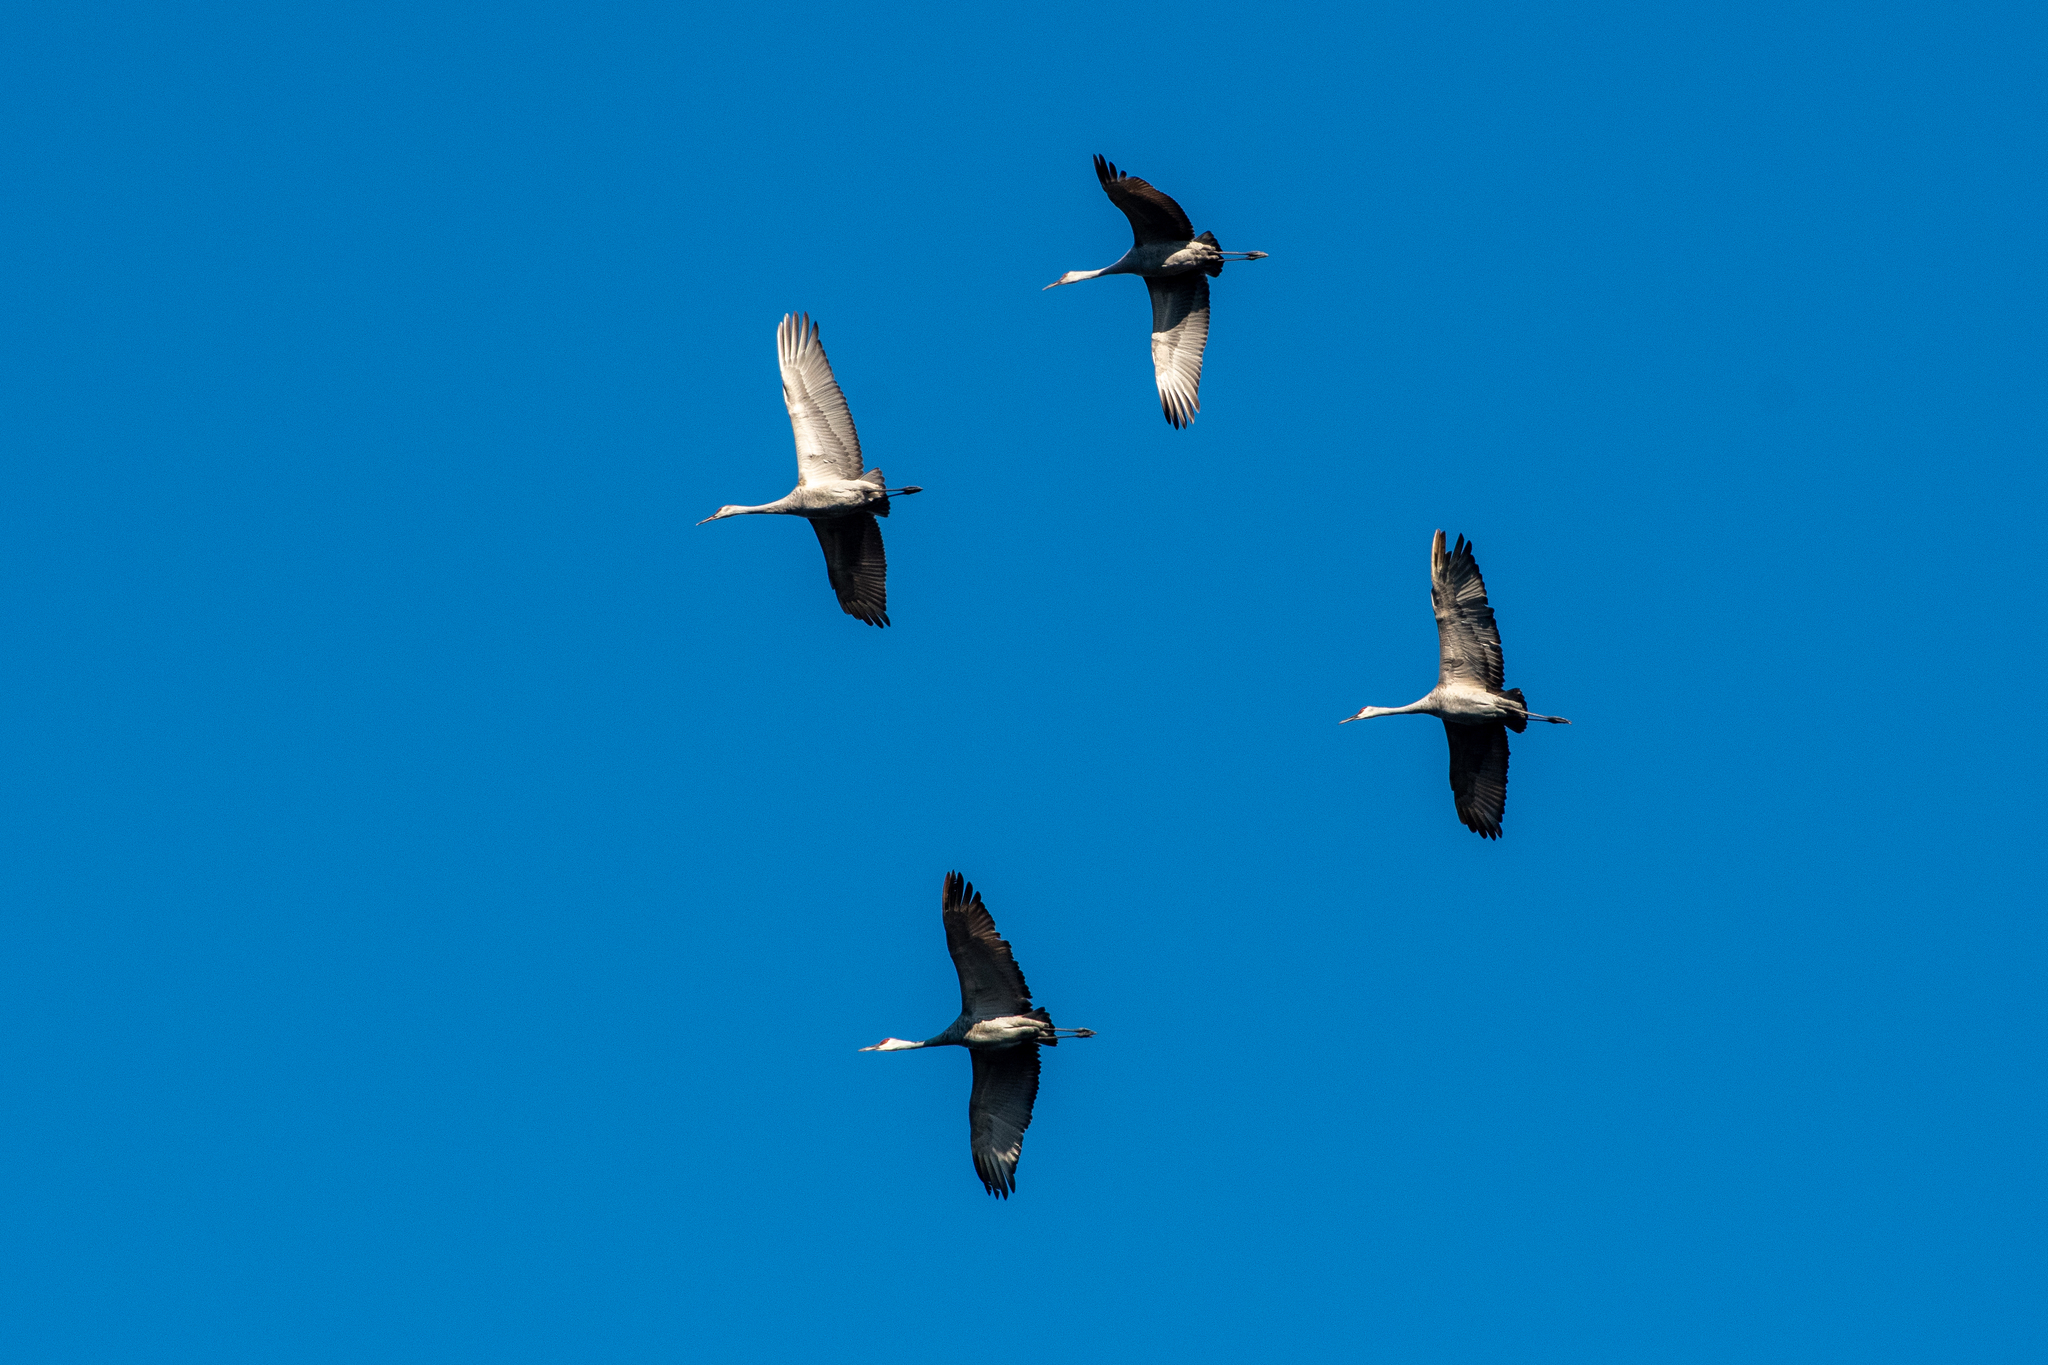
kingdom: Animalia
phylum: Chordata
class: Aves
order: Gruiformes
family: Gruidae
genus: Grus
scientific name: Grus canadensis
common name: Sandhill crane
